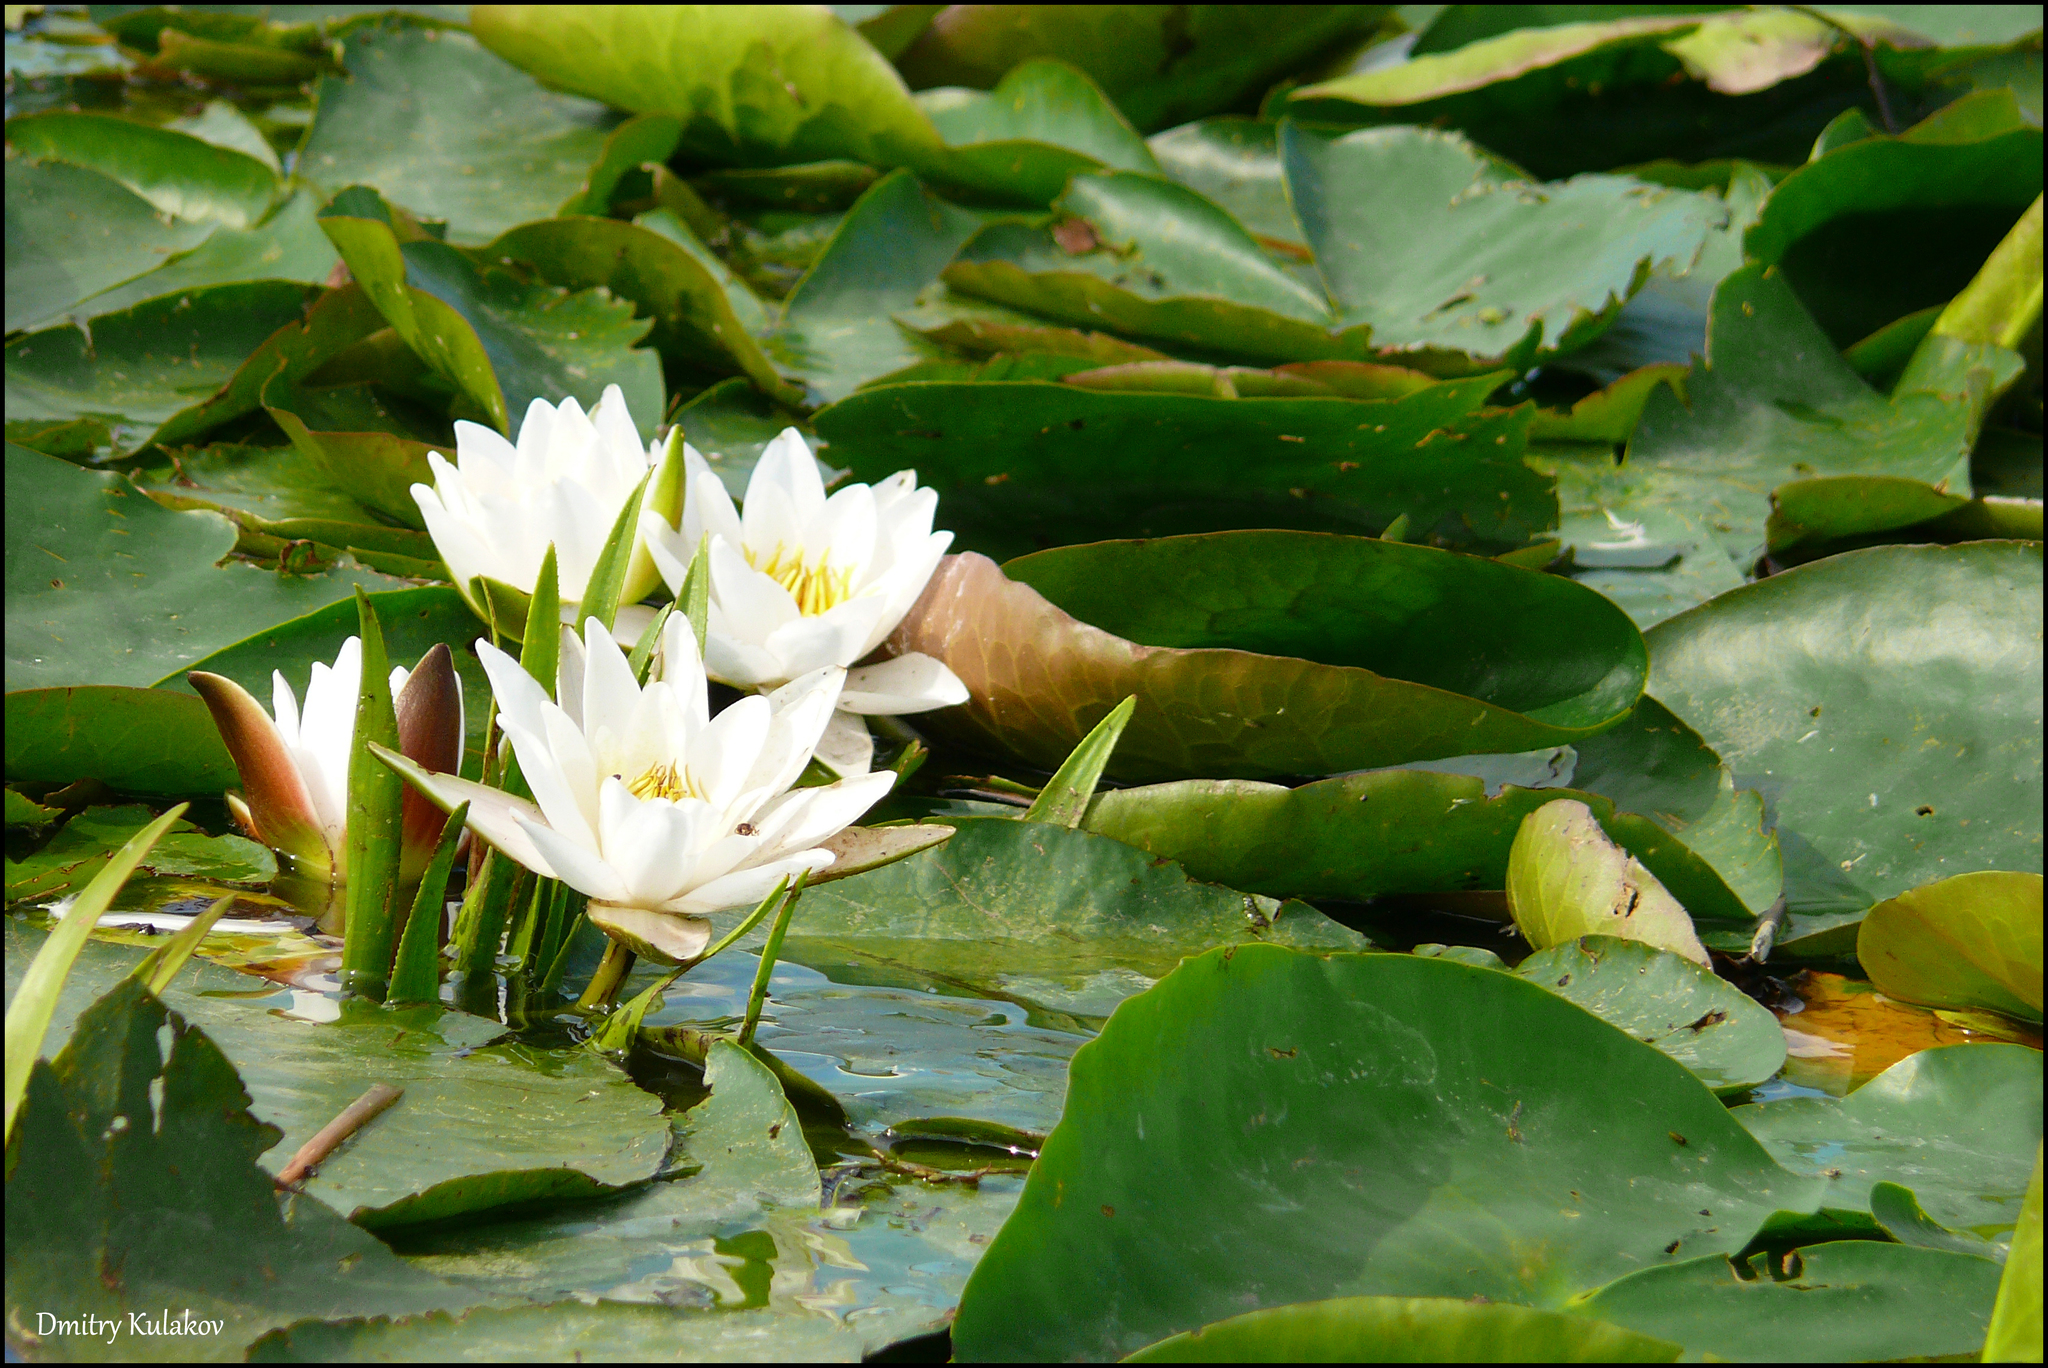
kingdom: Plantae
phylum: Tracheophyta
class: Magnoliopsida
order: Nymphaeales
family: Nymphaeaceae
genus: Nymphaea
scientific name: Nymphaea candida
